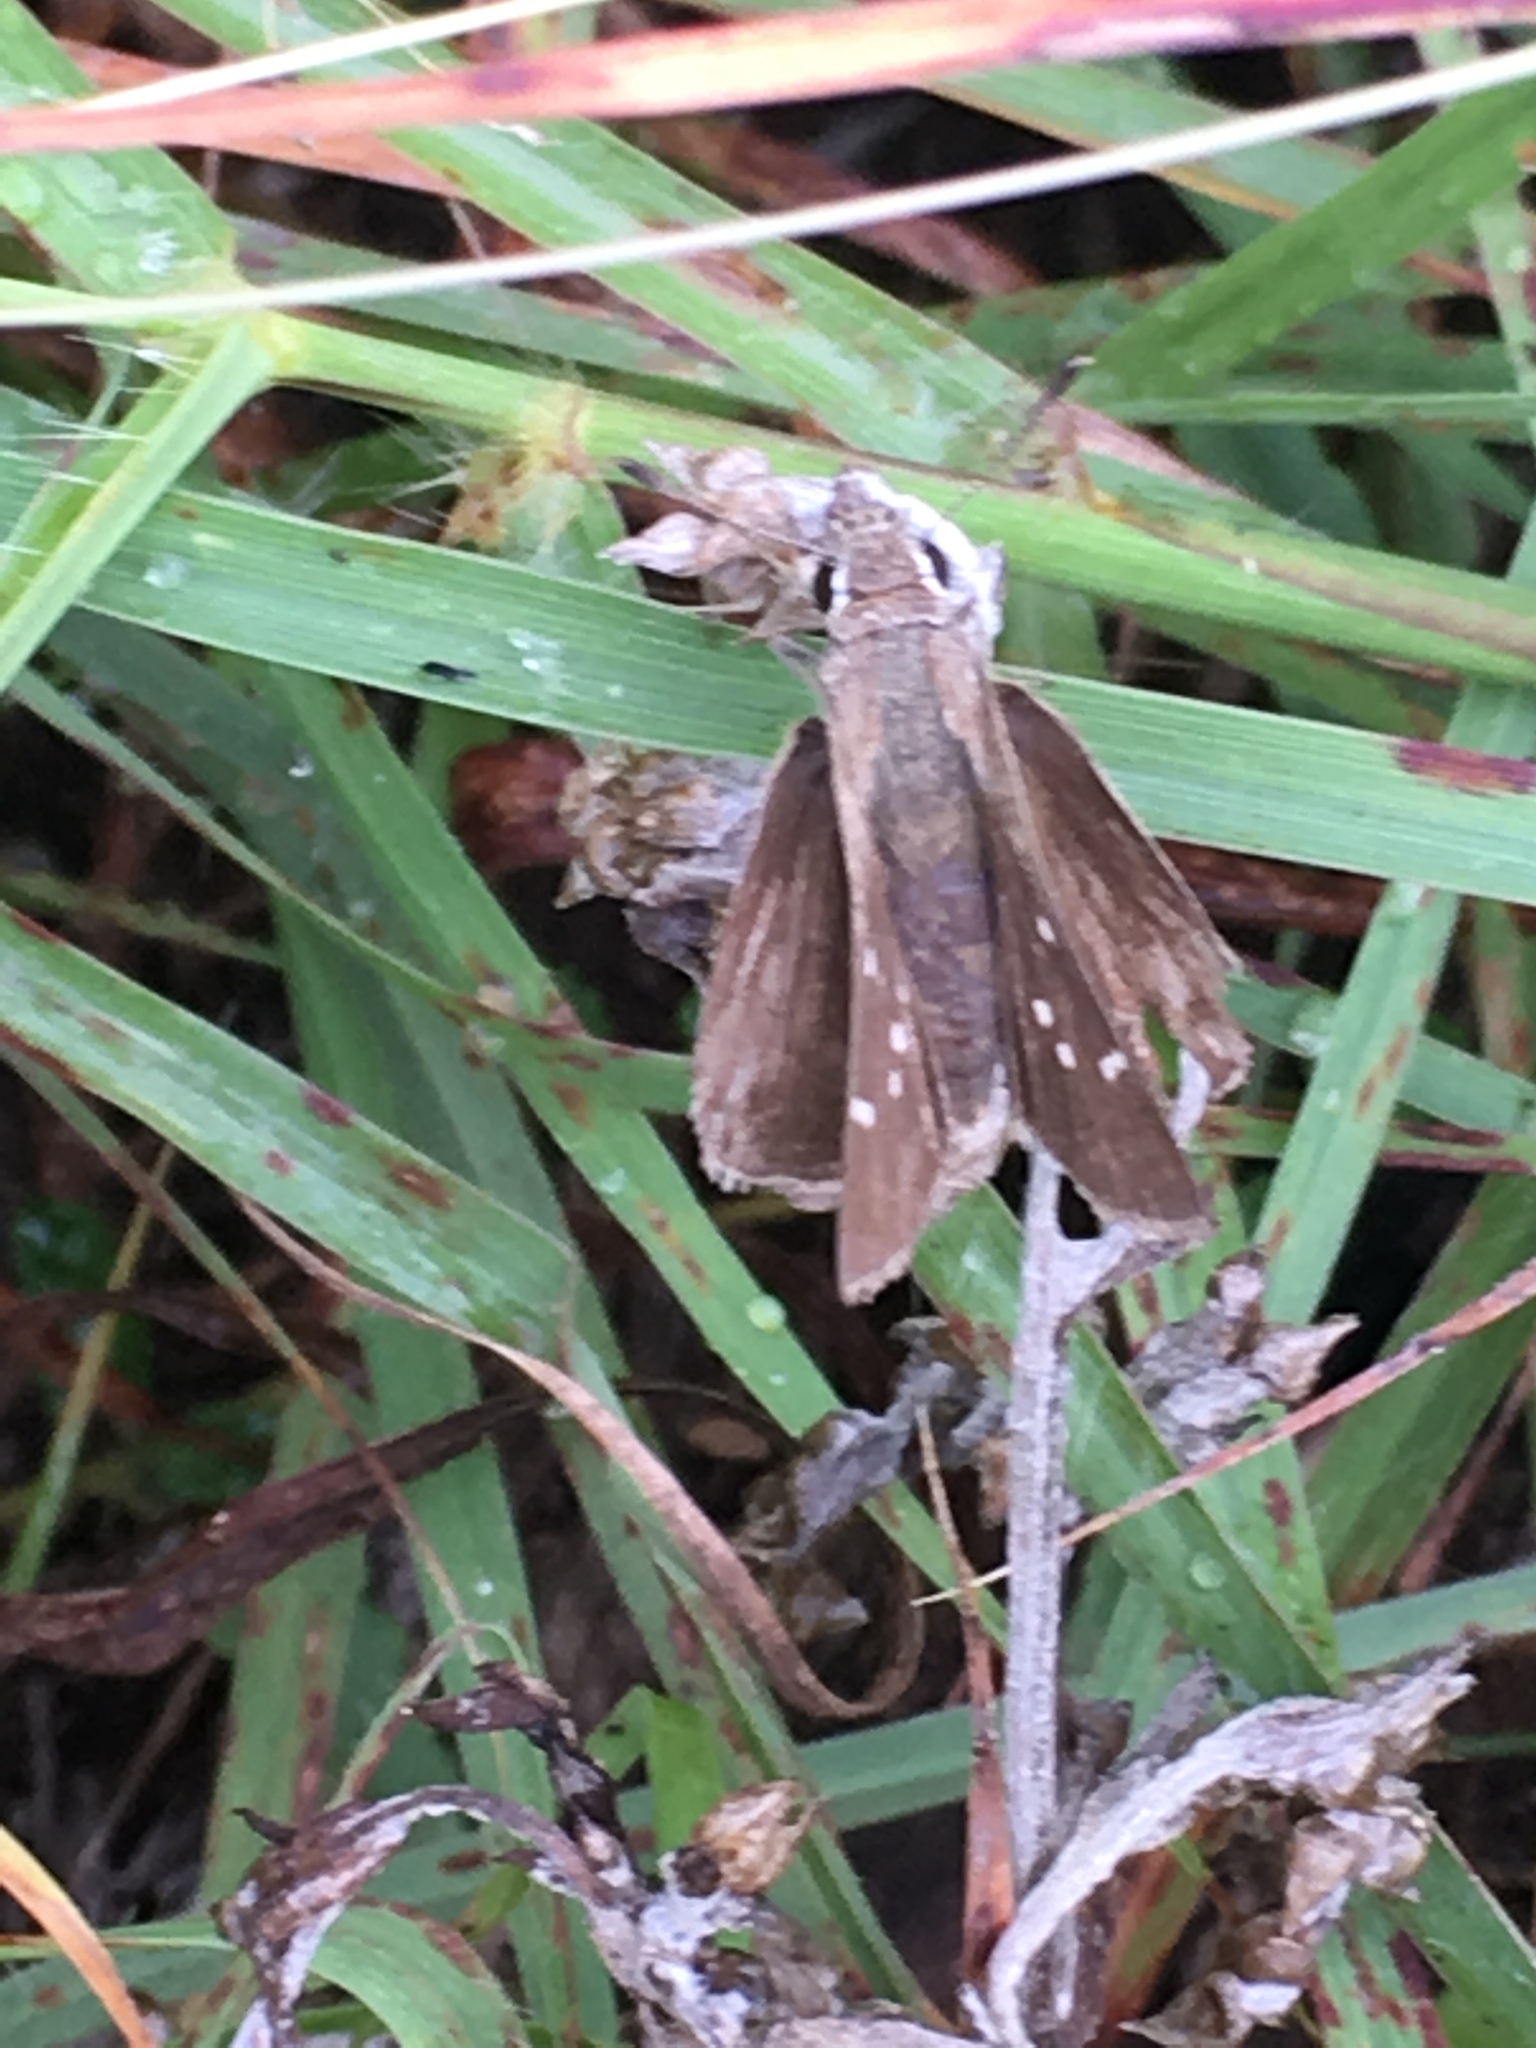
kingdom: Animalia
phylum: Arthropoda
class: Insecta
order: Lepidoptera
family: Hesperiidae
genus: Lerodea
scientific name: Lerodea eufala
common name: Eufala skipper
